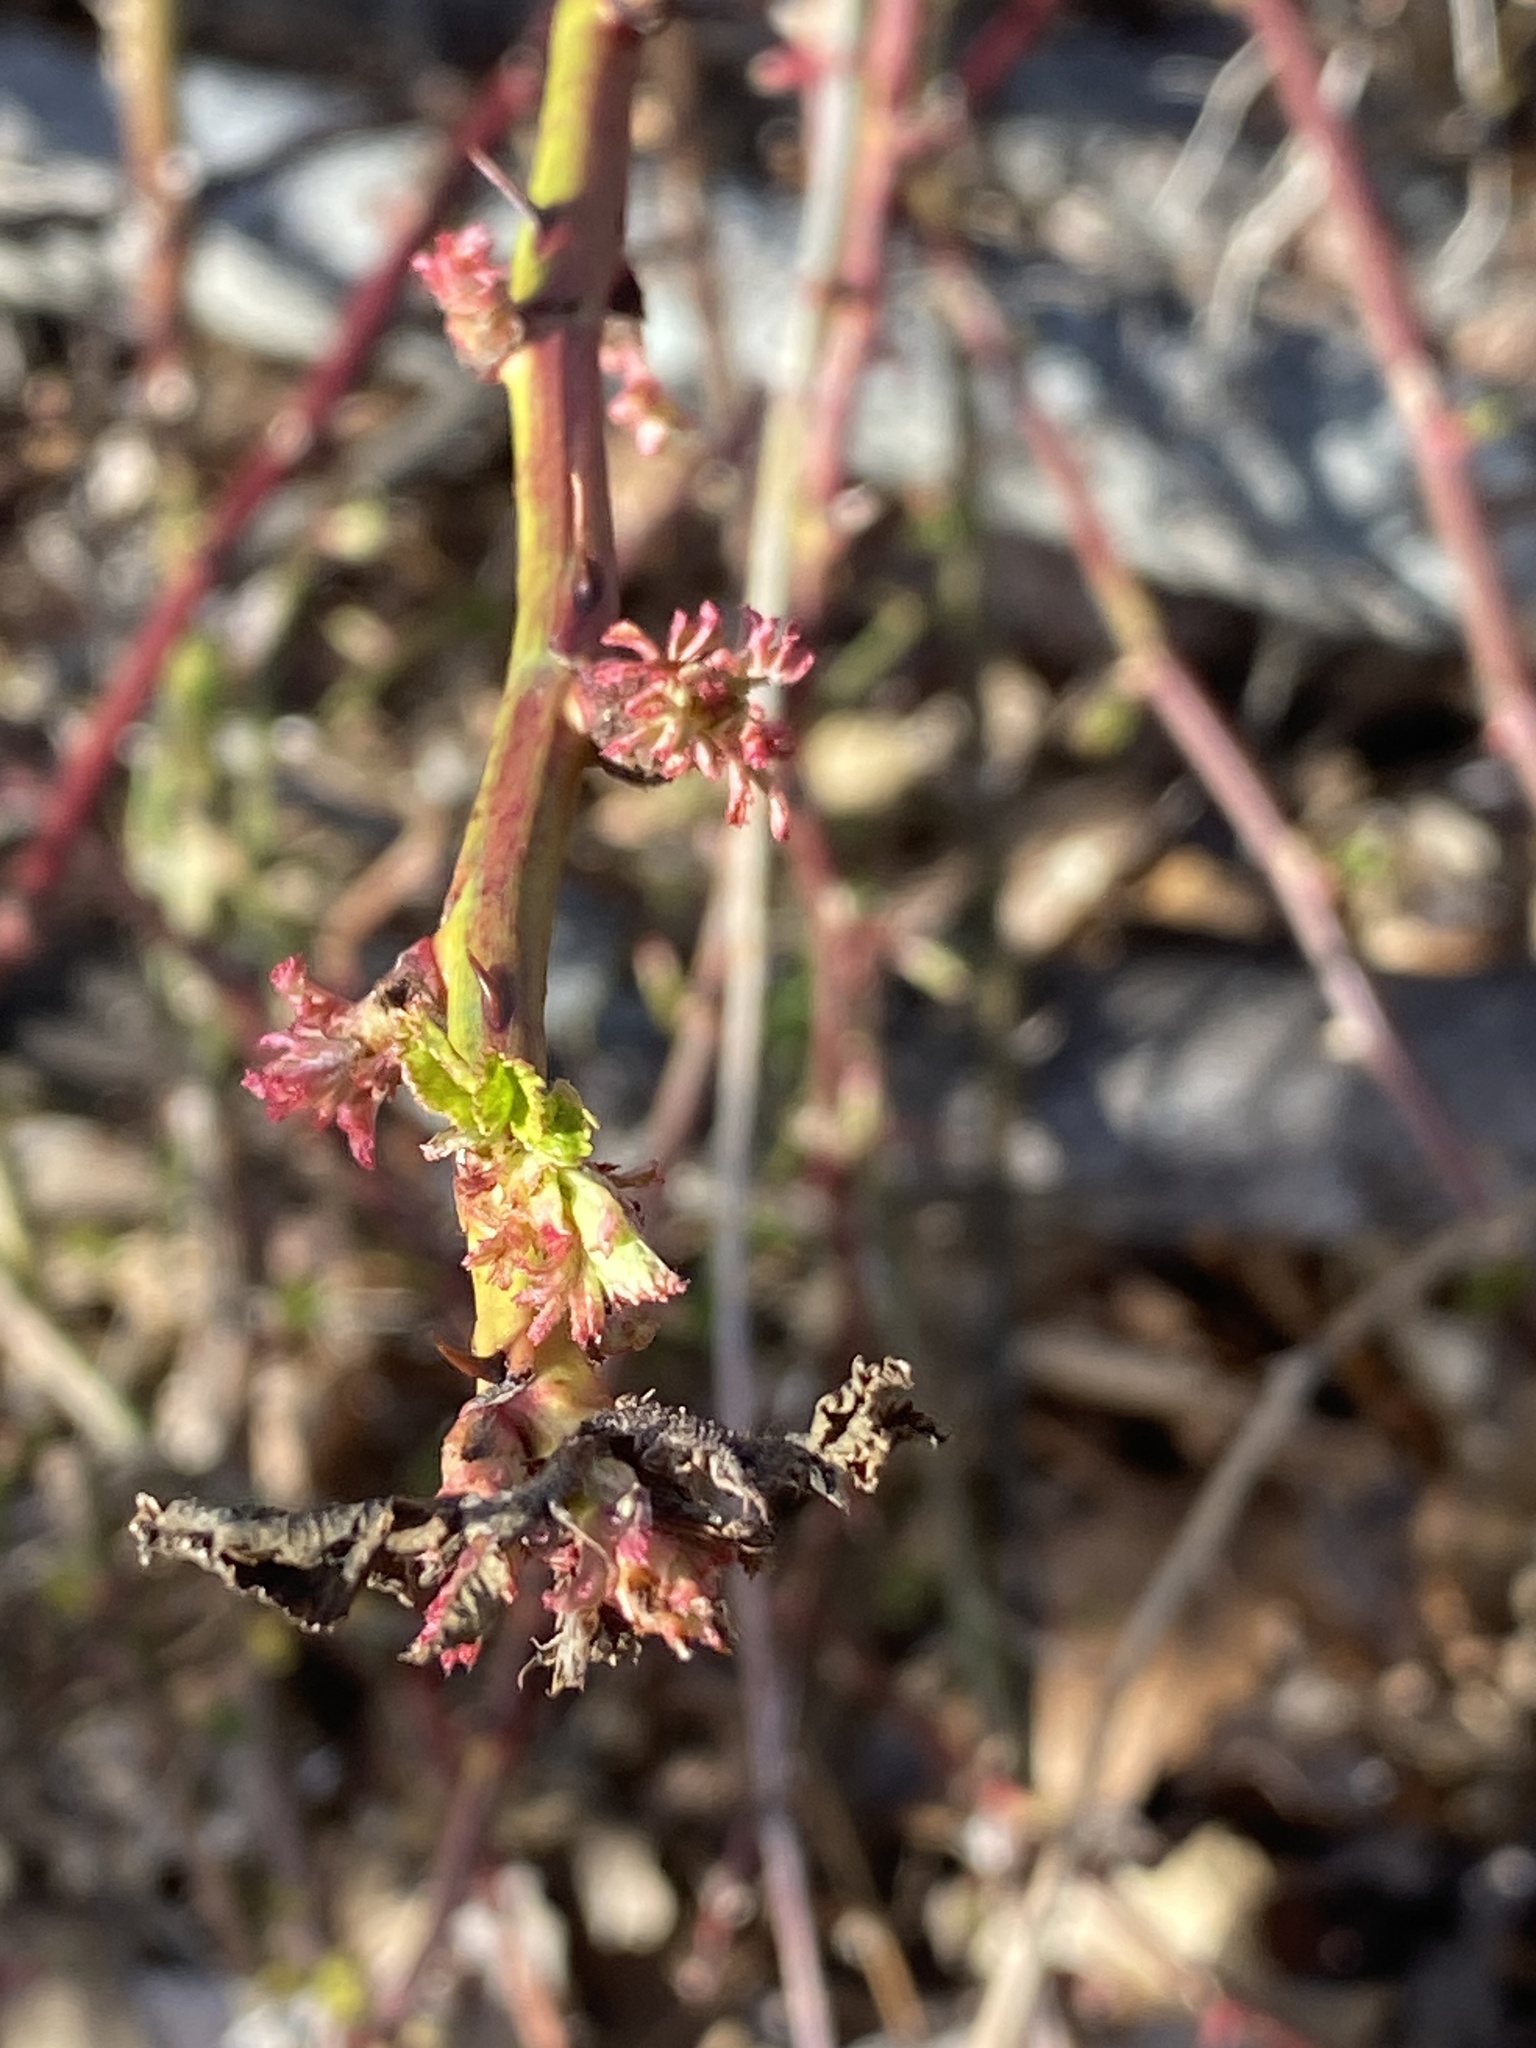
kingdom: Viruses
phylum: Negarnaviricota
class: Ellioviricetes
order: Bunyavirales
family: Fimoviridae
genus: Emaravirus
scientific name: Emaravirus rosae
